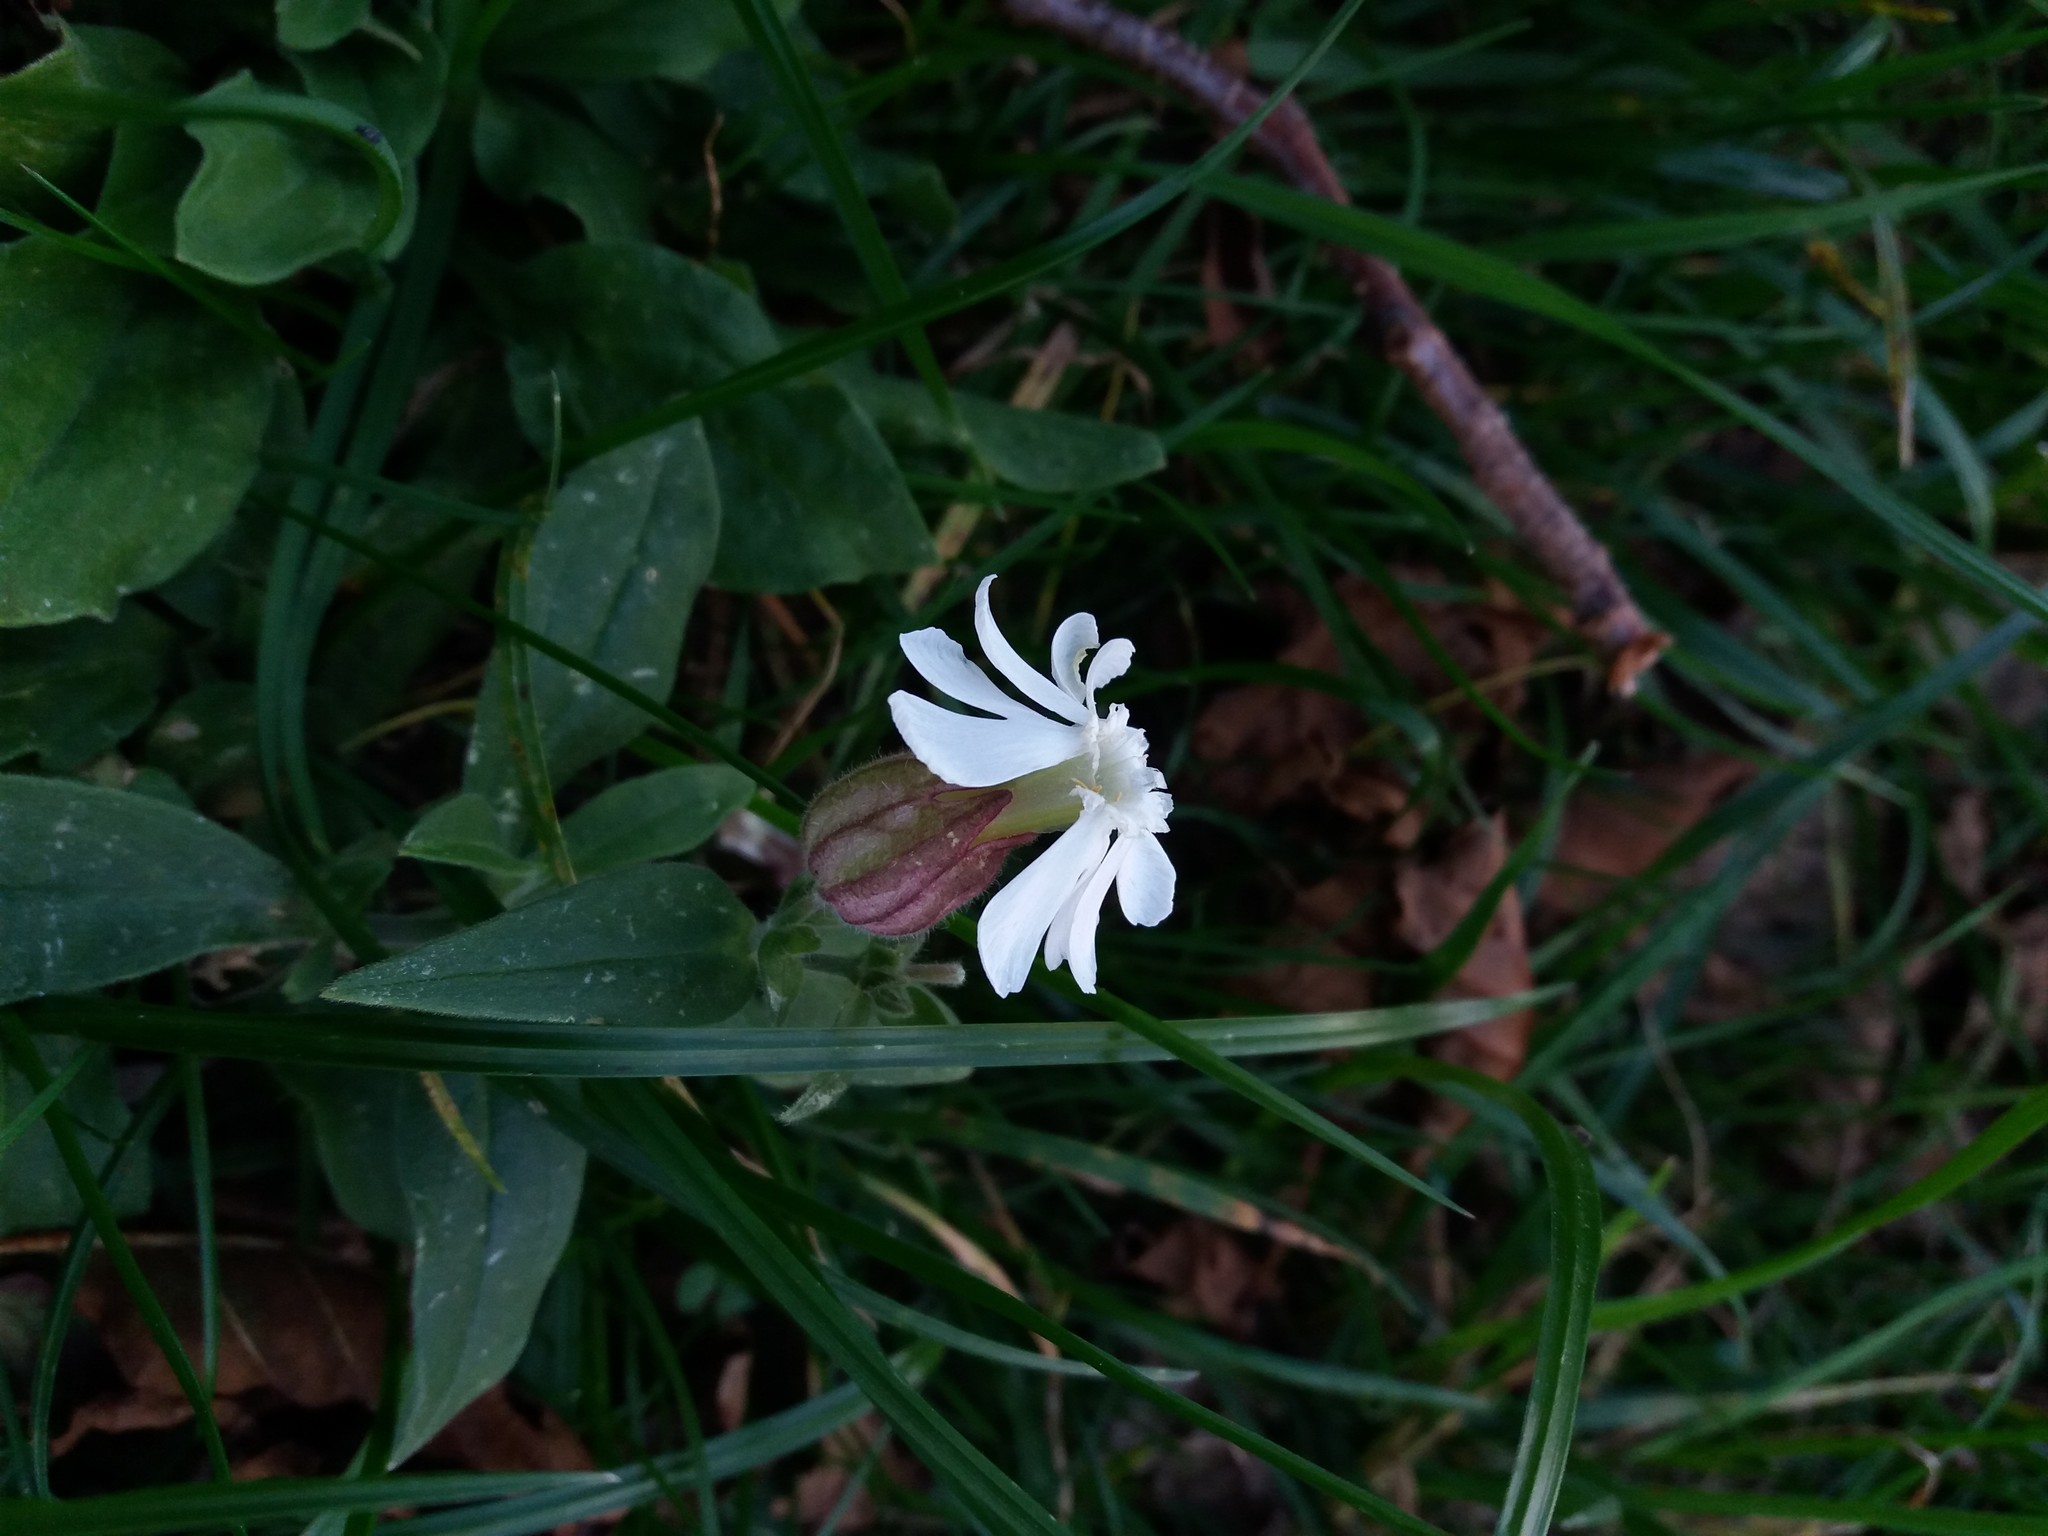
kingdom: Plantae
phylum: Tracheophyta
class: Magnoliopsida
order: Caryophyllales
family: Caryophyllaceae
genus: Silene
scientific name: Silene latifolia
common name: White campion
